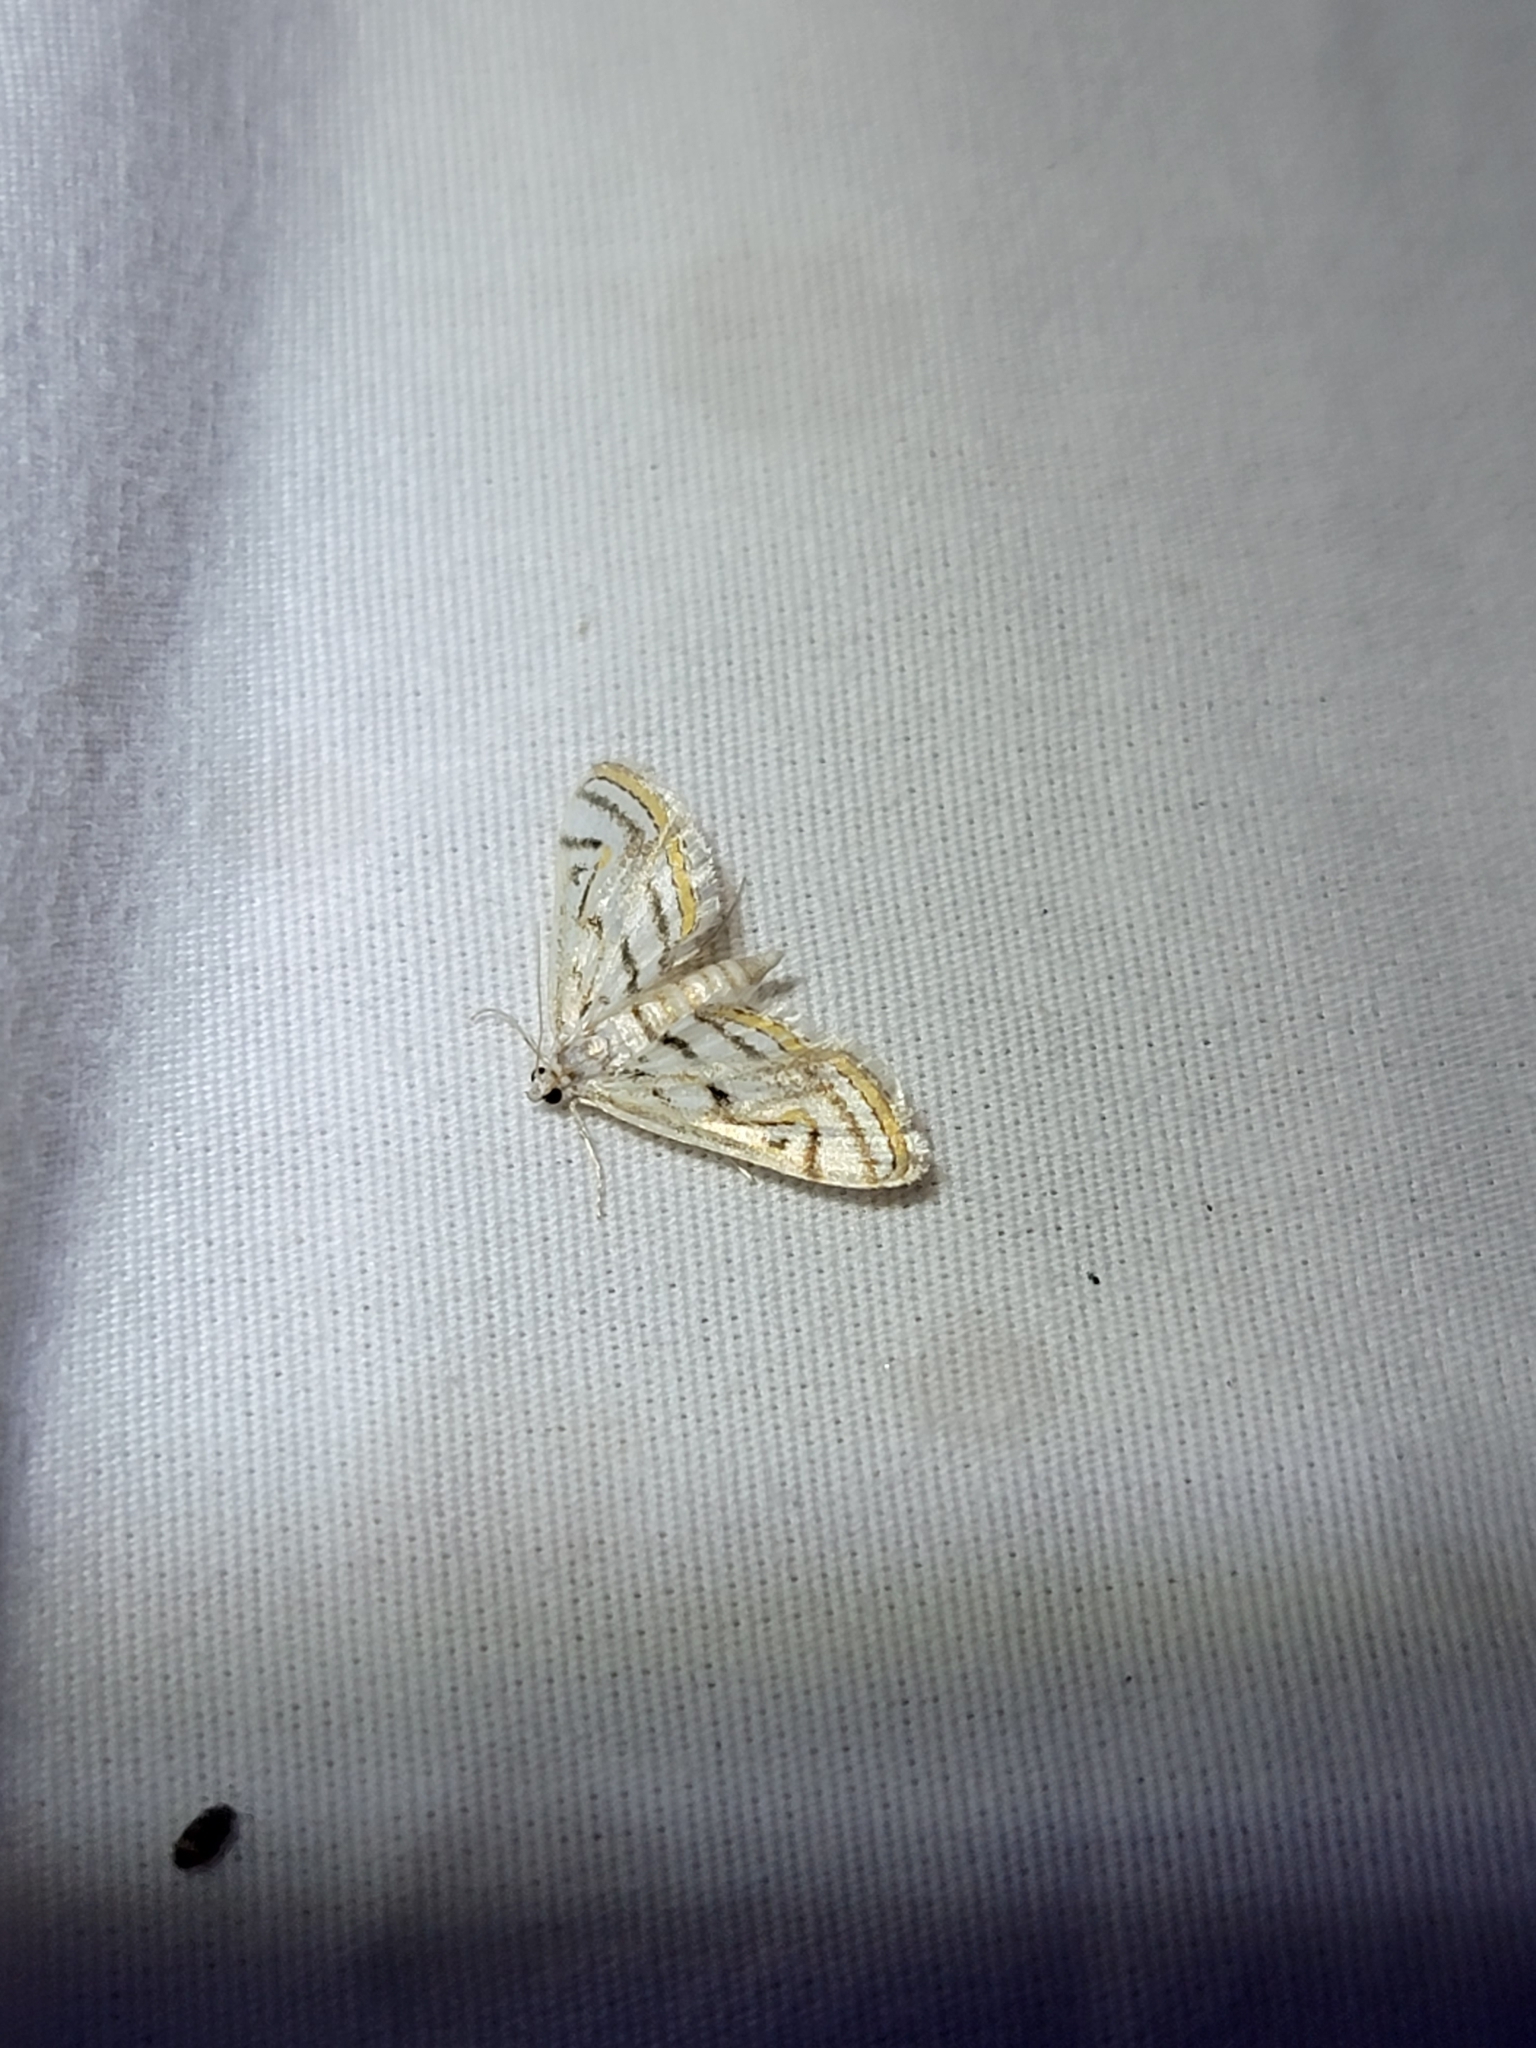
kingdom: Animalia
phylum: Arthropoda
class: Insecta
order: Lepidoptera
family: Crambidae
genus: Parapoynx
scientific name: Parapoynx badiusalis
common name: Chestnut-marked pondweed moth
